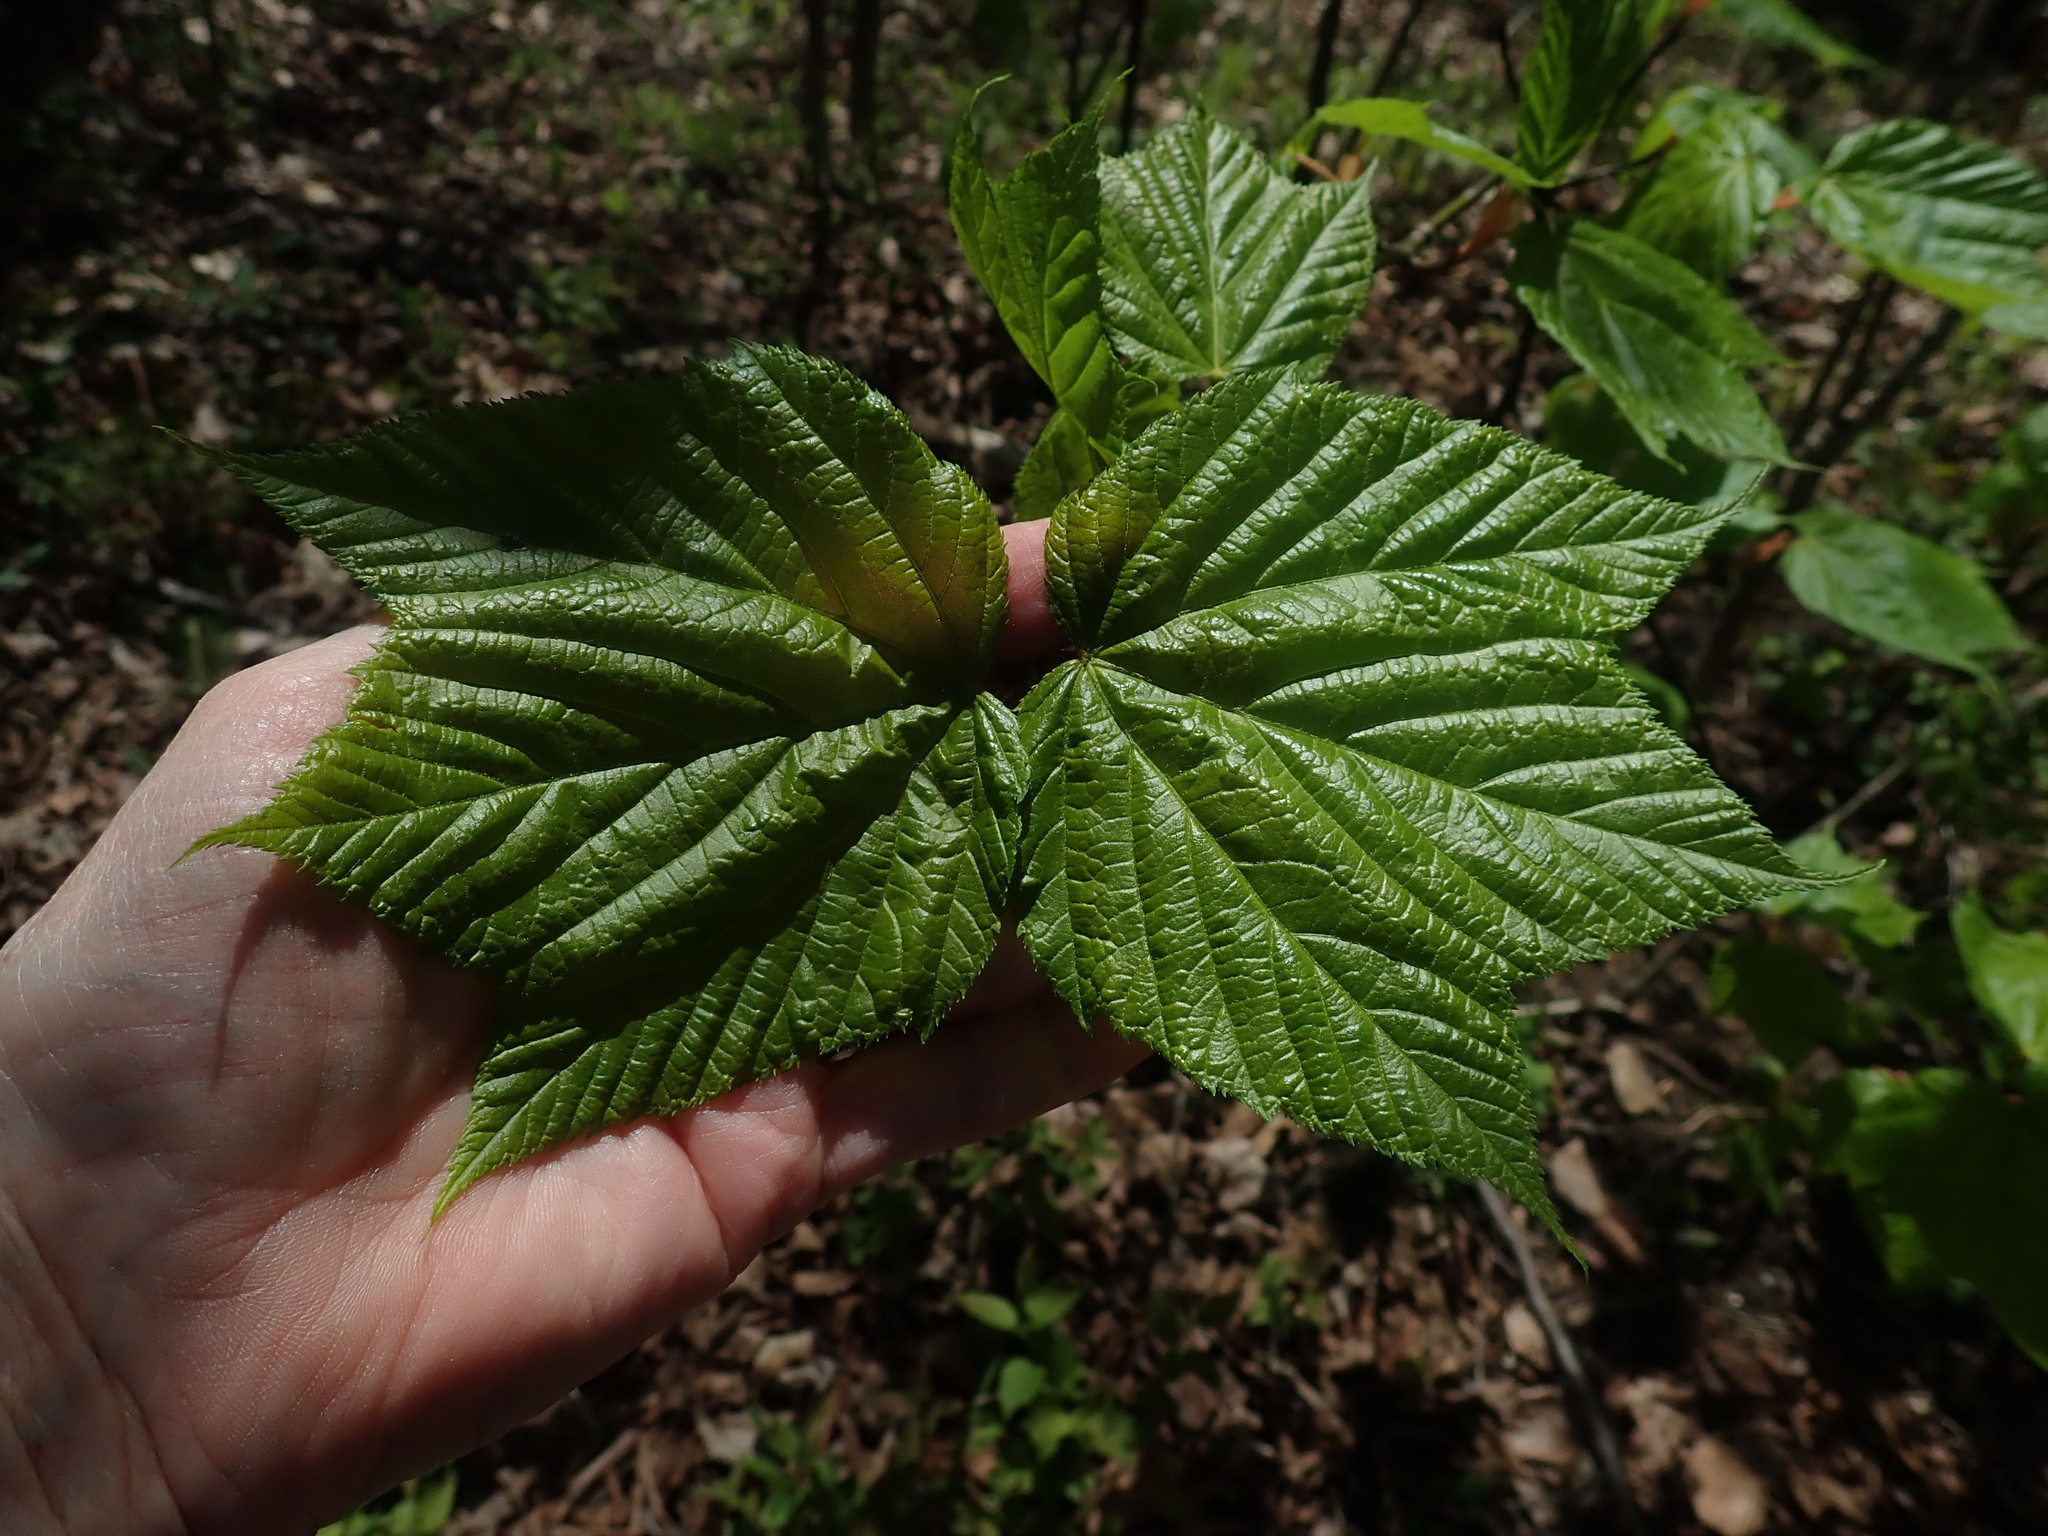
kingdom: Plantae
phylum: Tracheophyta
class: Magnoliopsida
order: Sapindales
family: Sapindaceae
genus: Acer
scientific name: Acer pensylvanicum
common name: Moosewood
